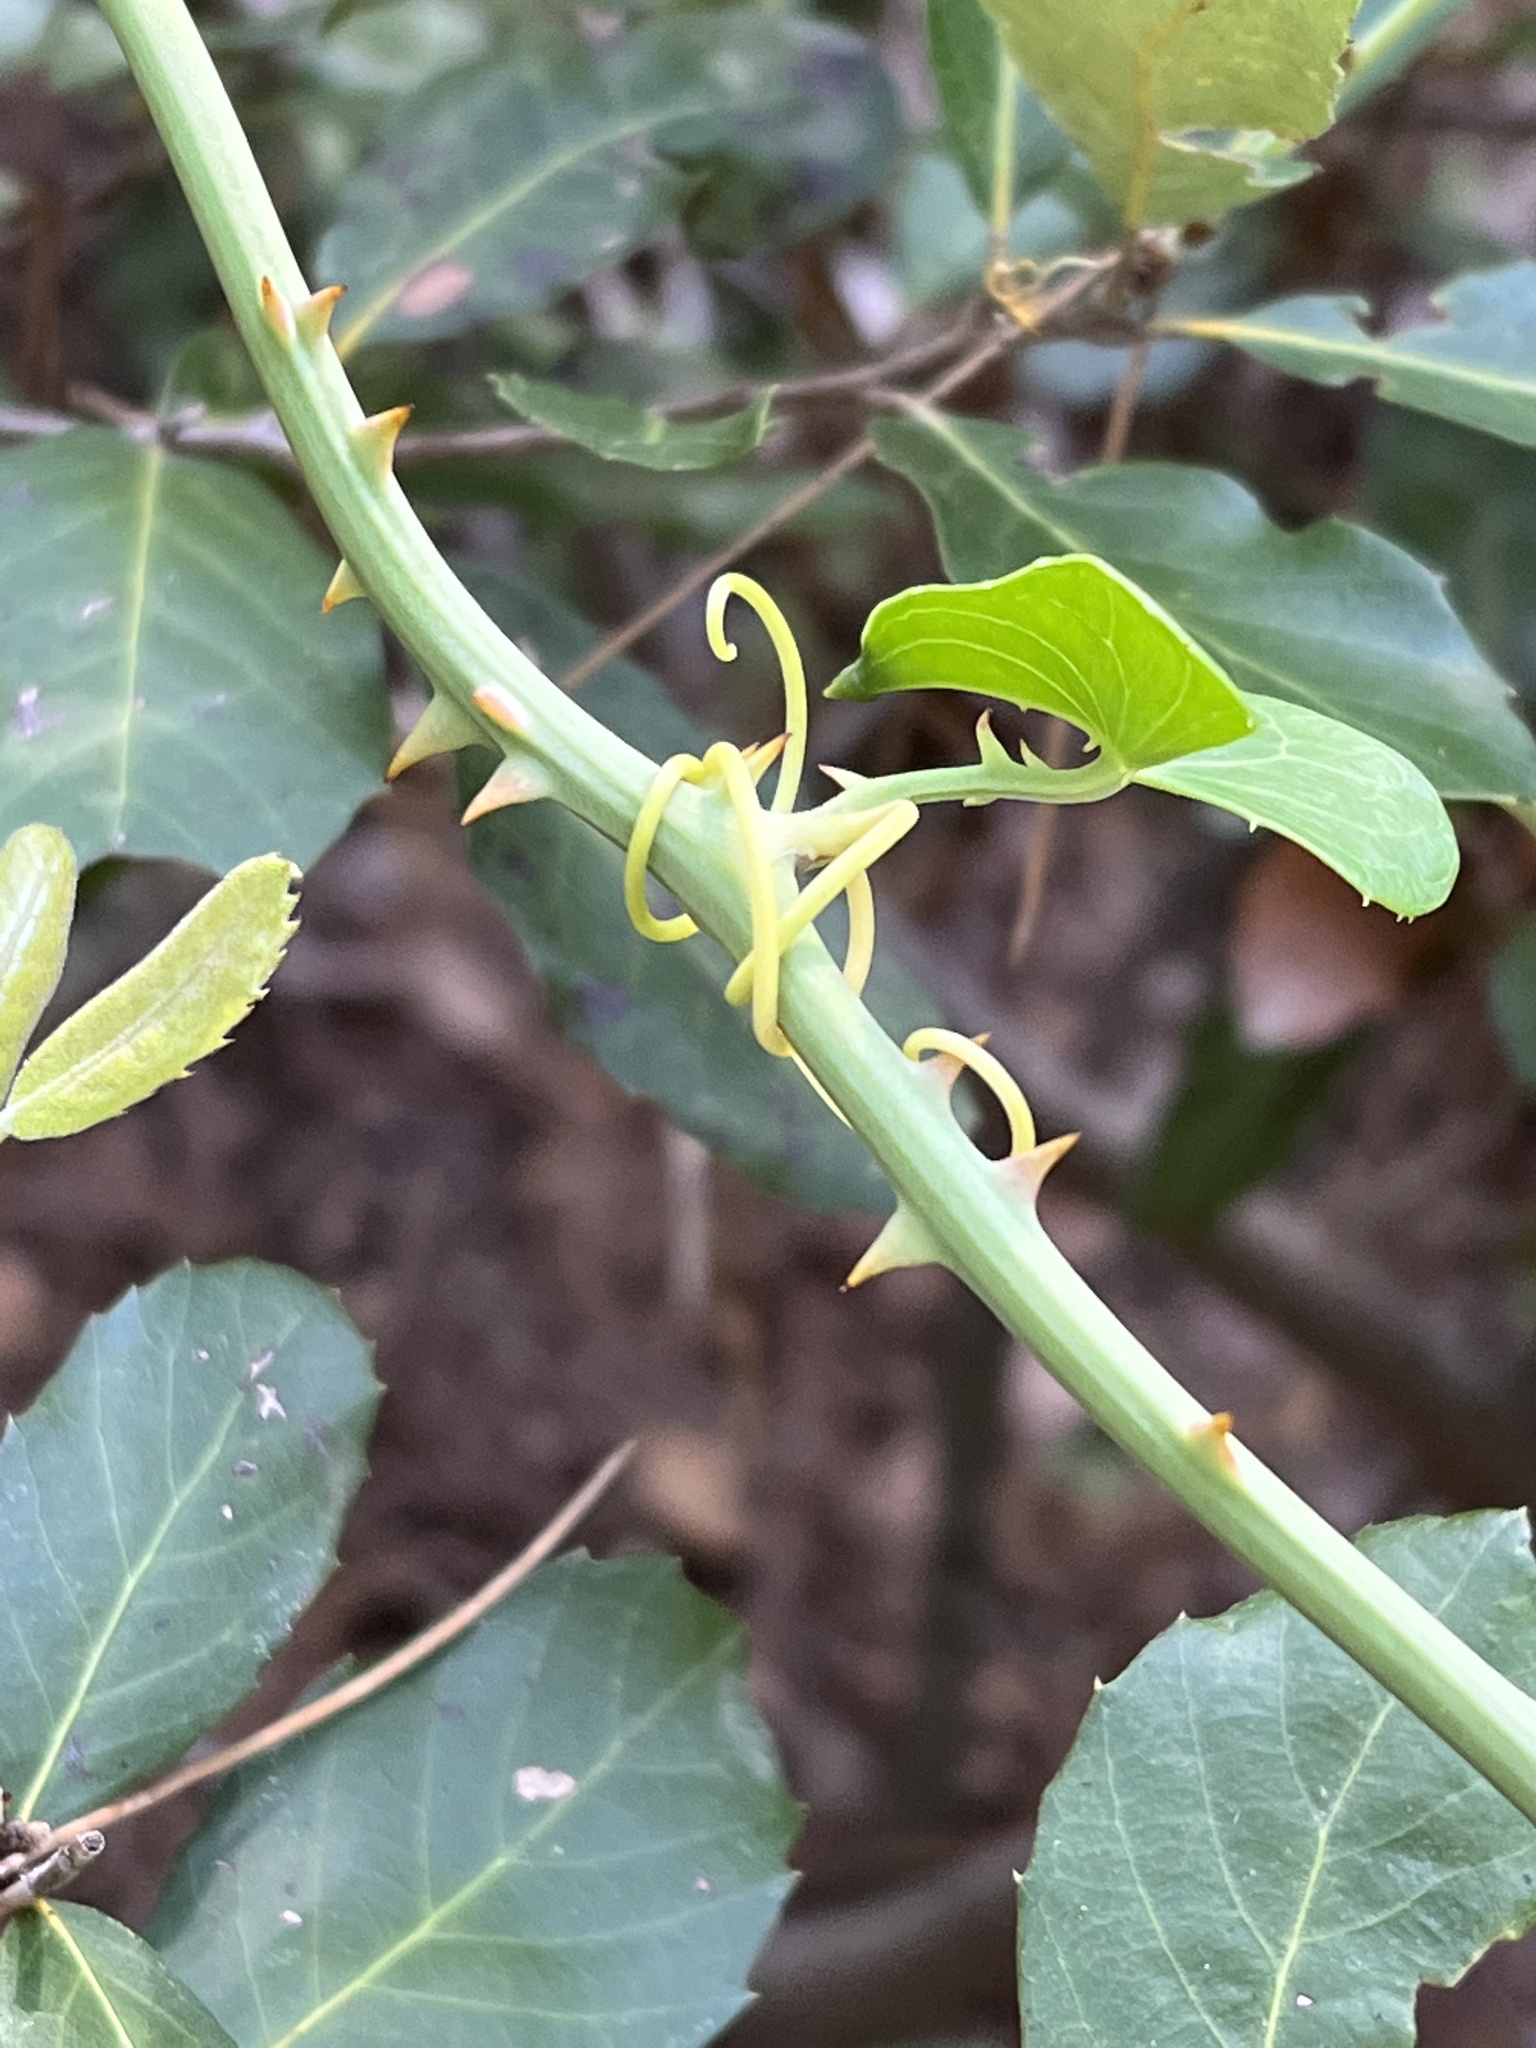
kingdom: Plantae
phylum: Tracheophyta
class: Liliopsida
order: Liliales
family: Smilacaceae
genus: Smilax
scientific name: Smilax aspera
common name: Common smilax
